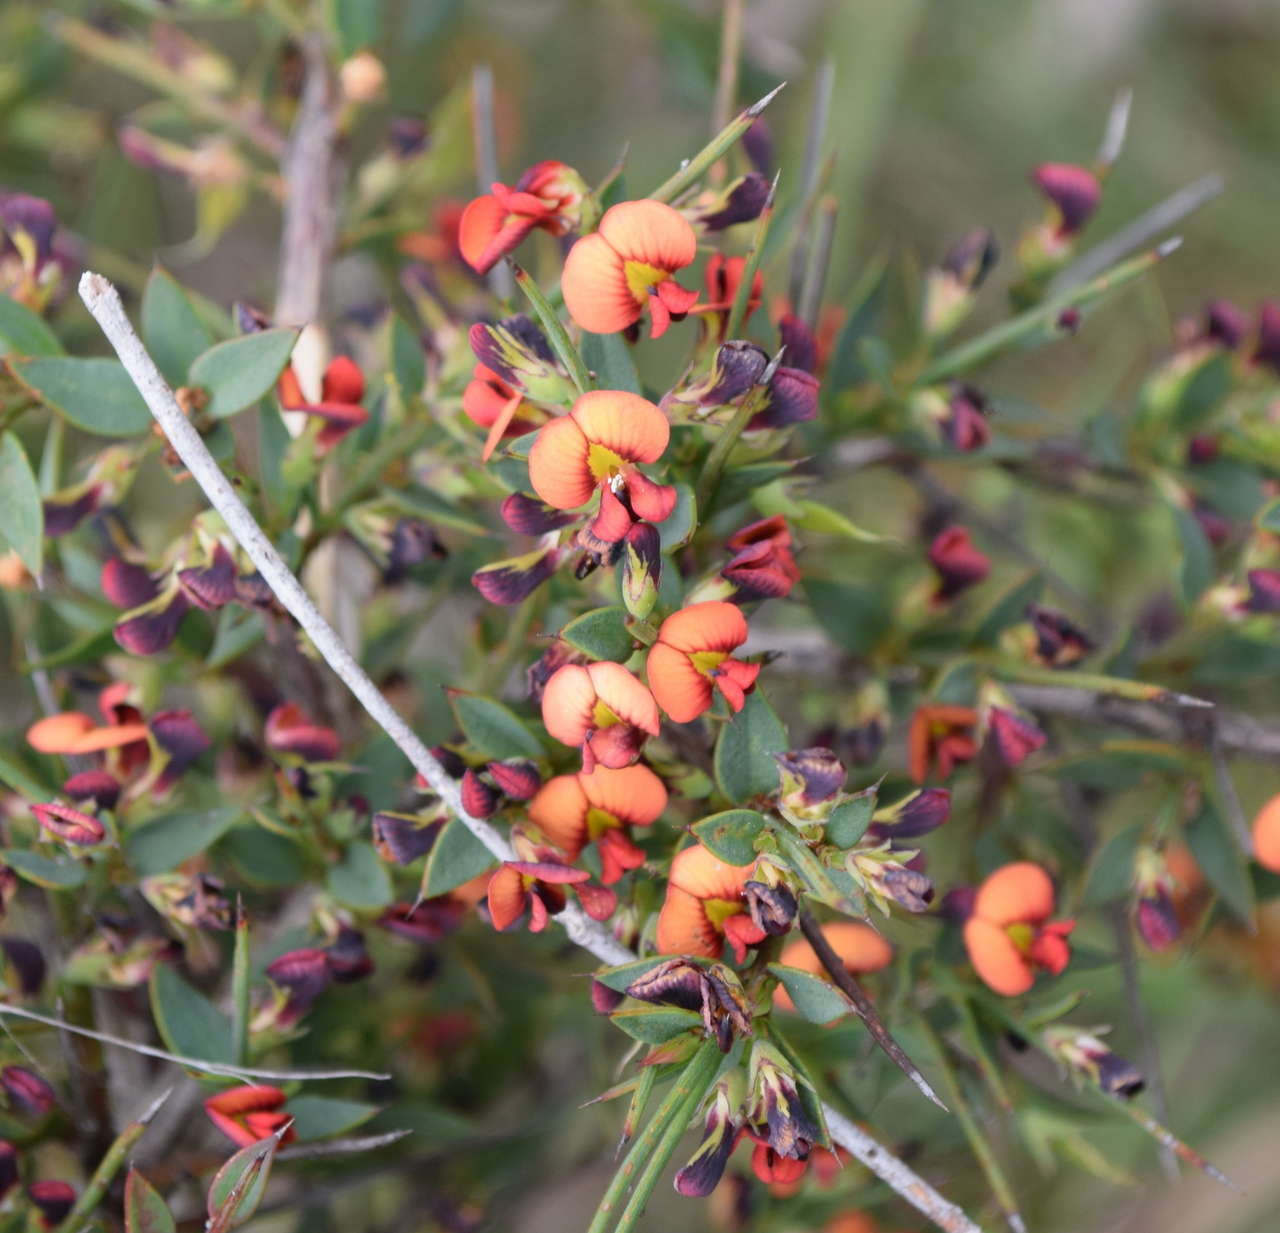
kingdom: Plantae
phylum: Tracheophyta
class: Magnoliopsida
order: Fabales
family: Fabaceae
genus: Daviesia
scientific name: Daviesia ulicifolia
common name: Gorse bitter-pea
